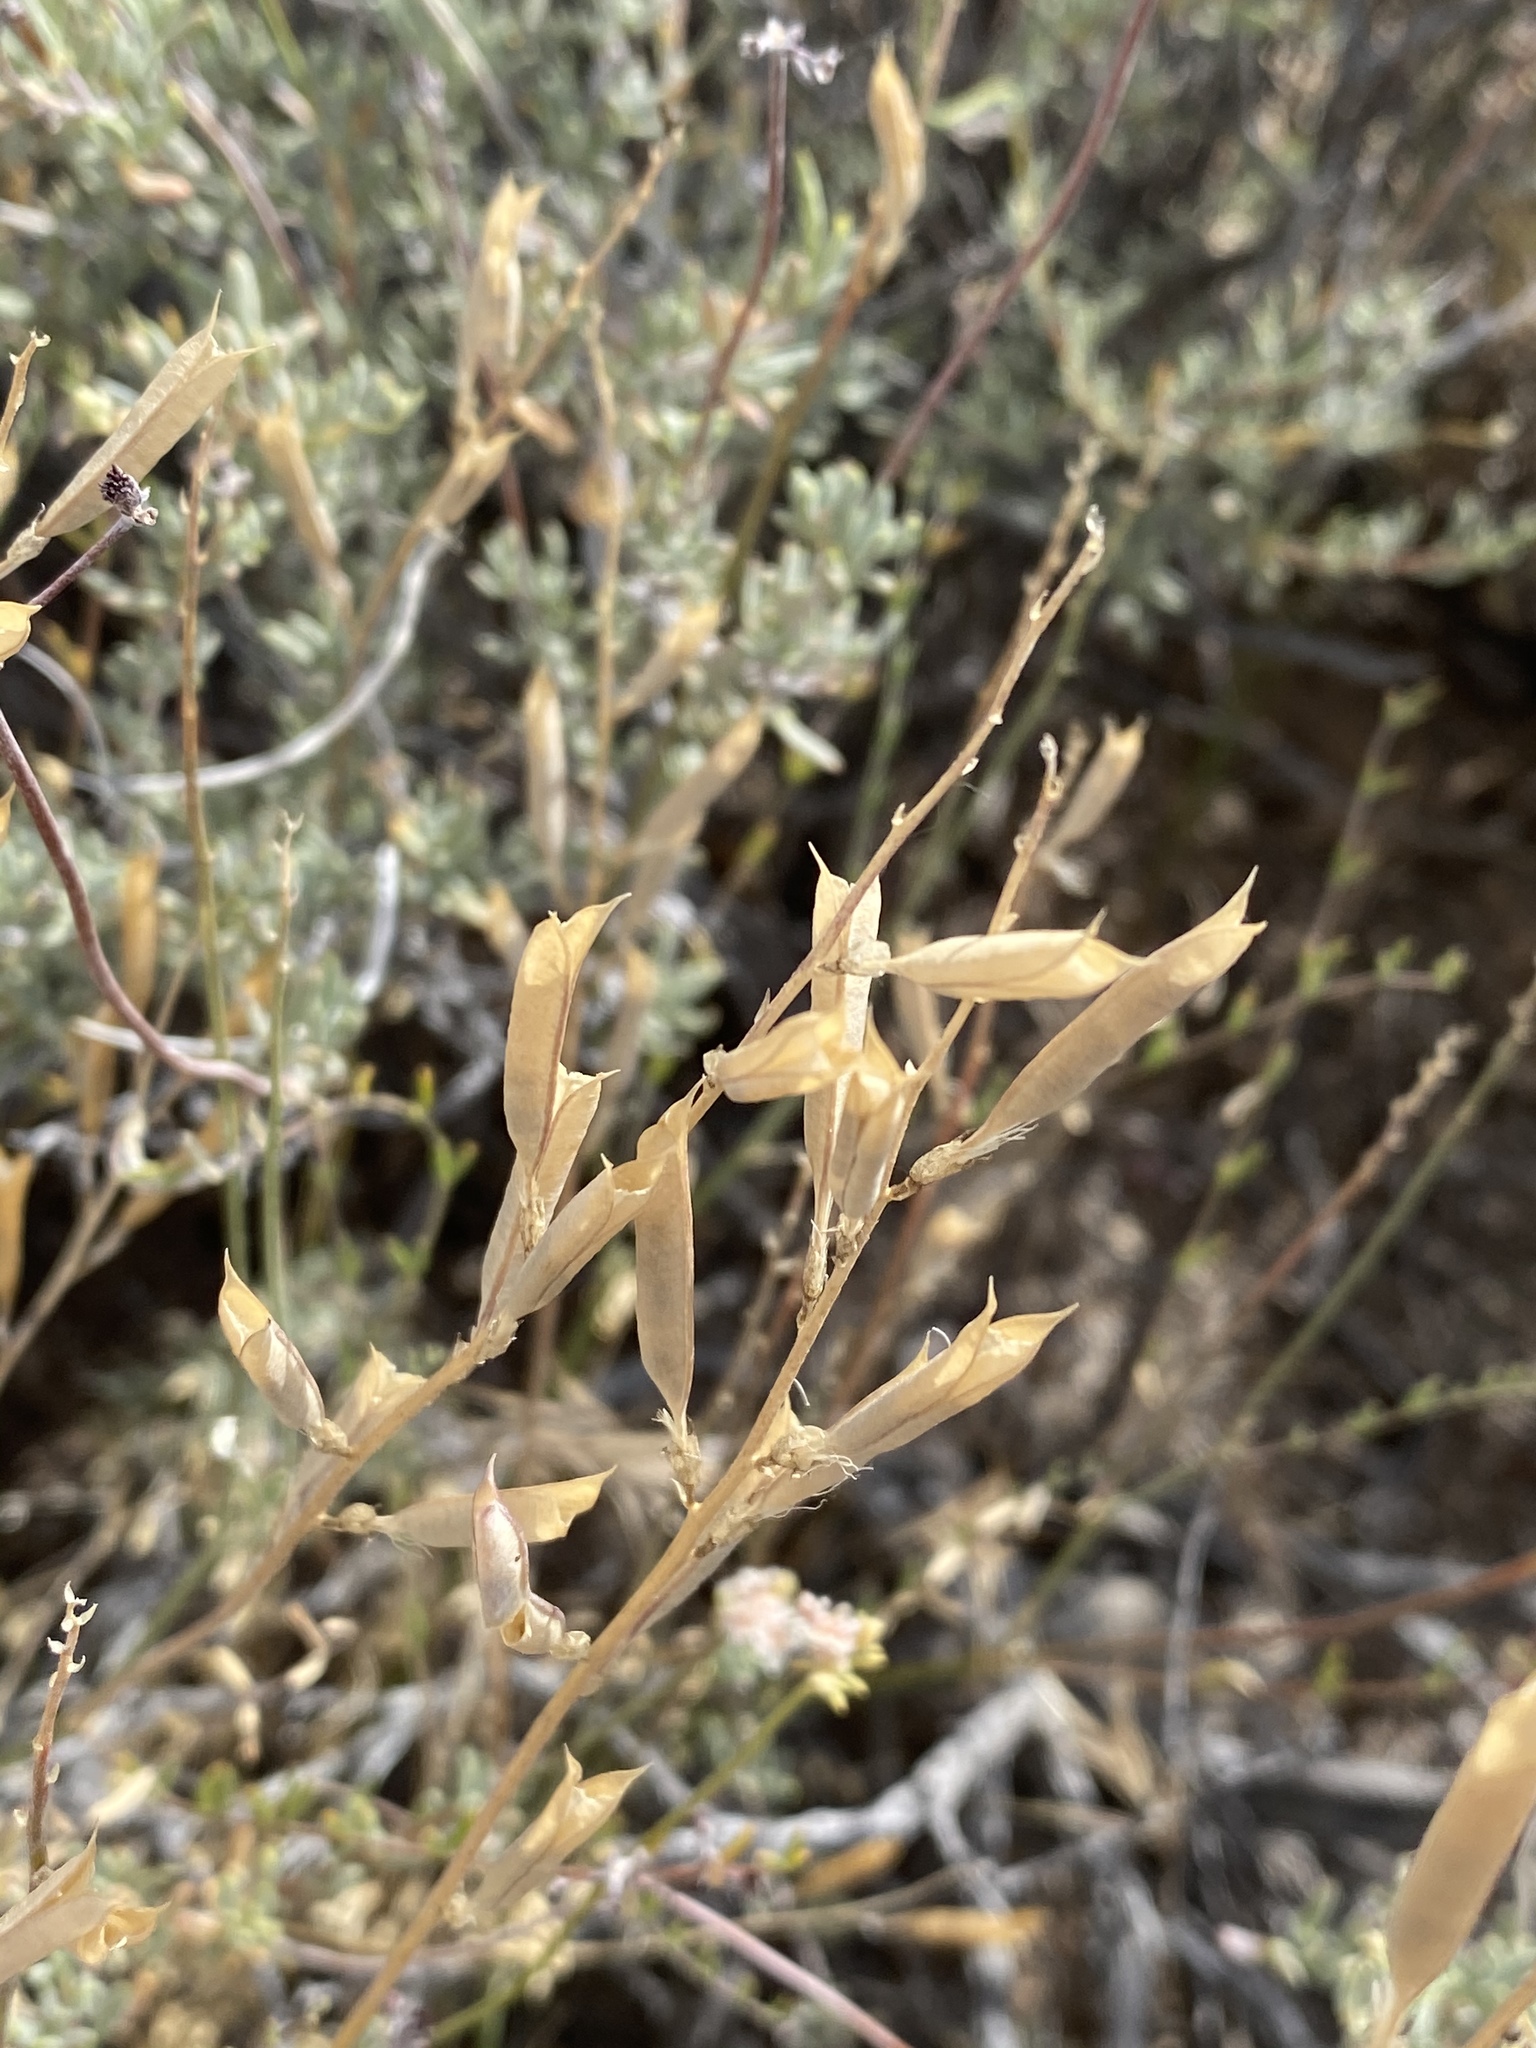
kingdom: Plantae
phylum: Tracheophyta
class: Magnoliopsida
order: Fabales
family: Fabaceae
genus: Astragalus
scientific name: Astragalus remotus
